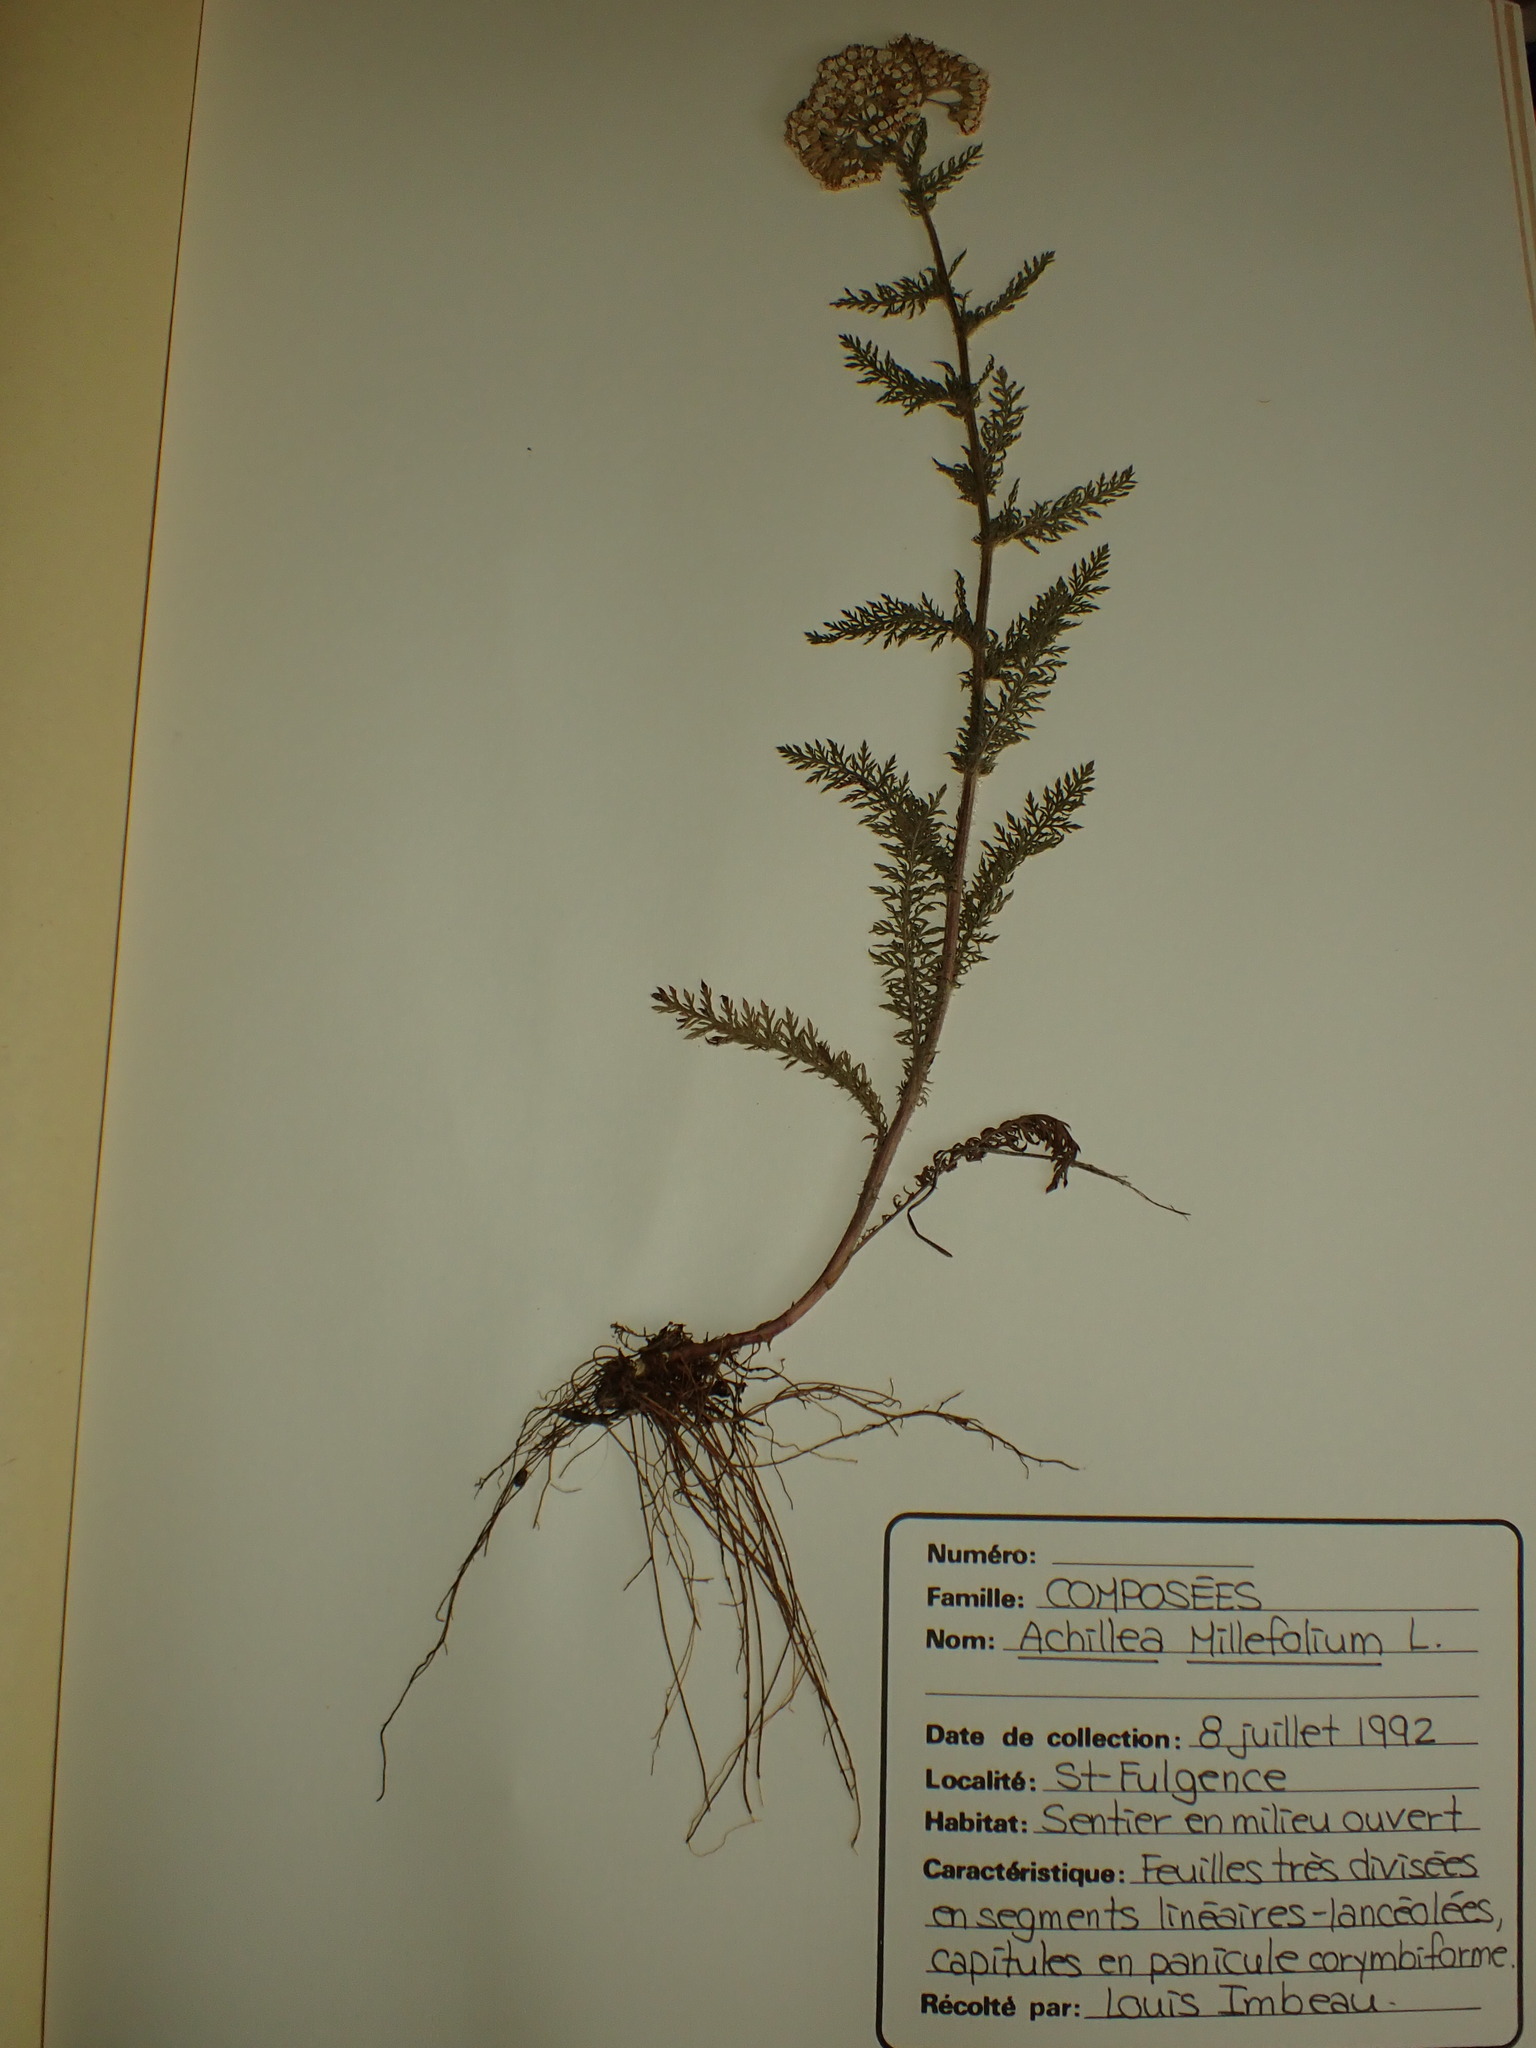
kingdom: Plantae
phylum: Tracheophyta
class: Magnoliopsida
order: Asterales
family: Asteraceae
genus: Achillea
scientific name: Achillea
